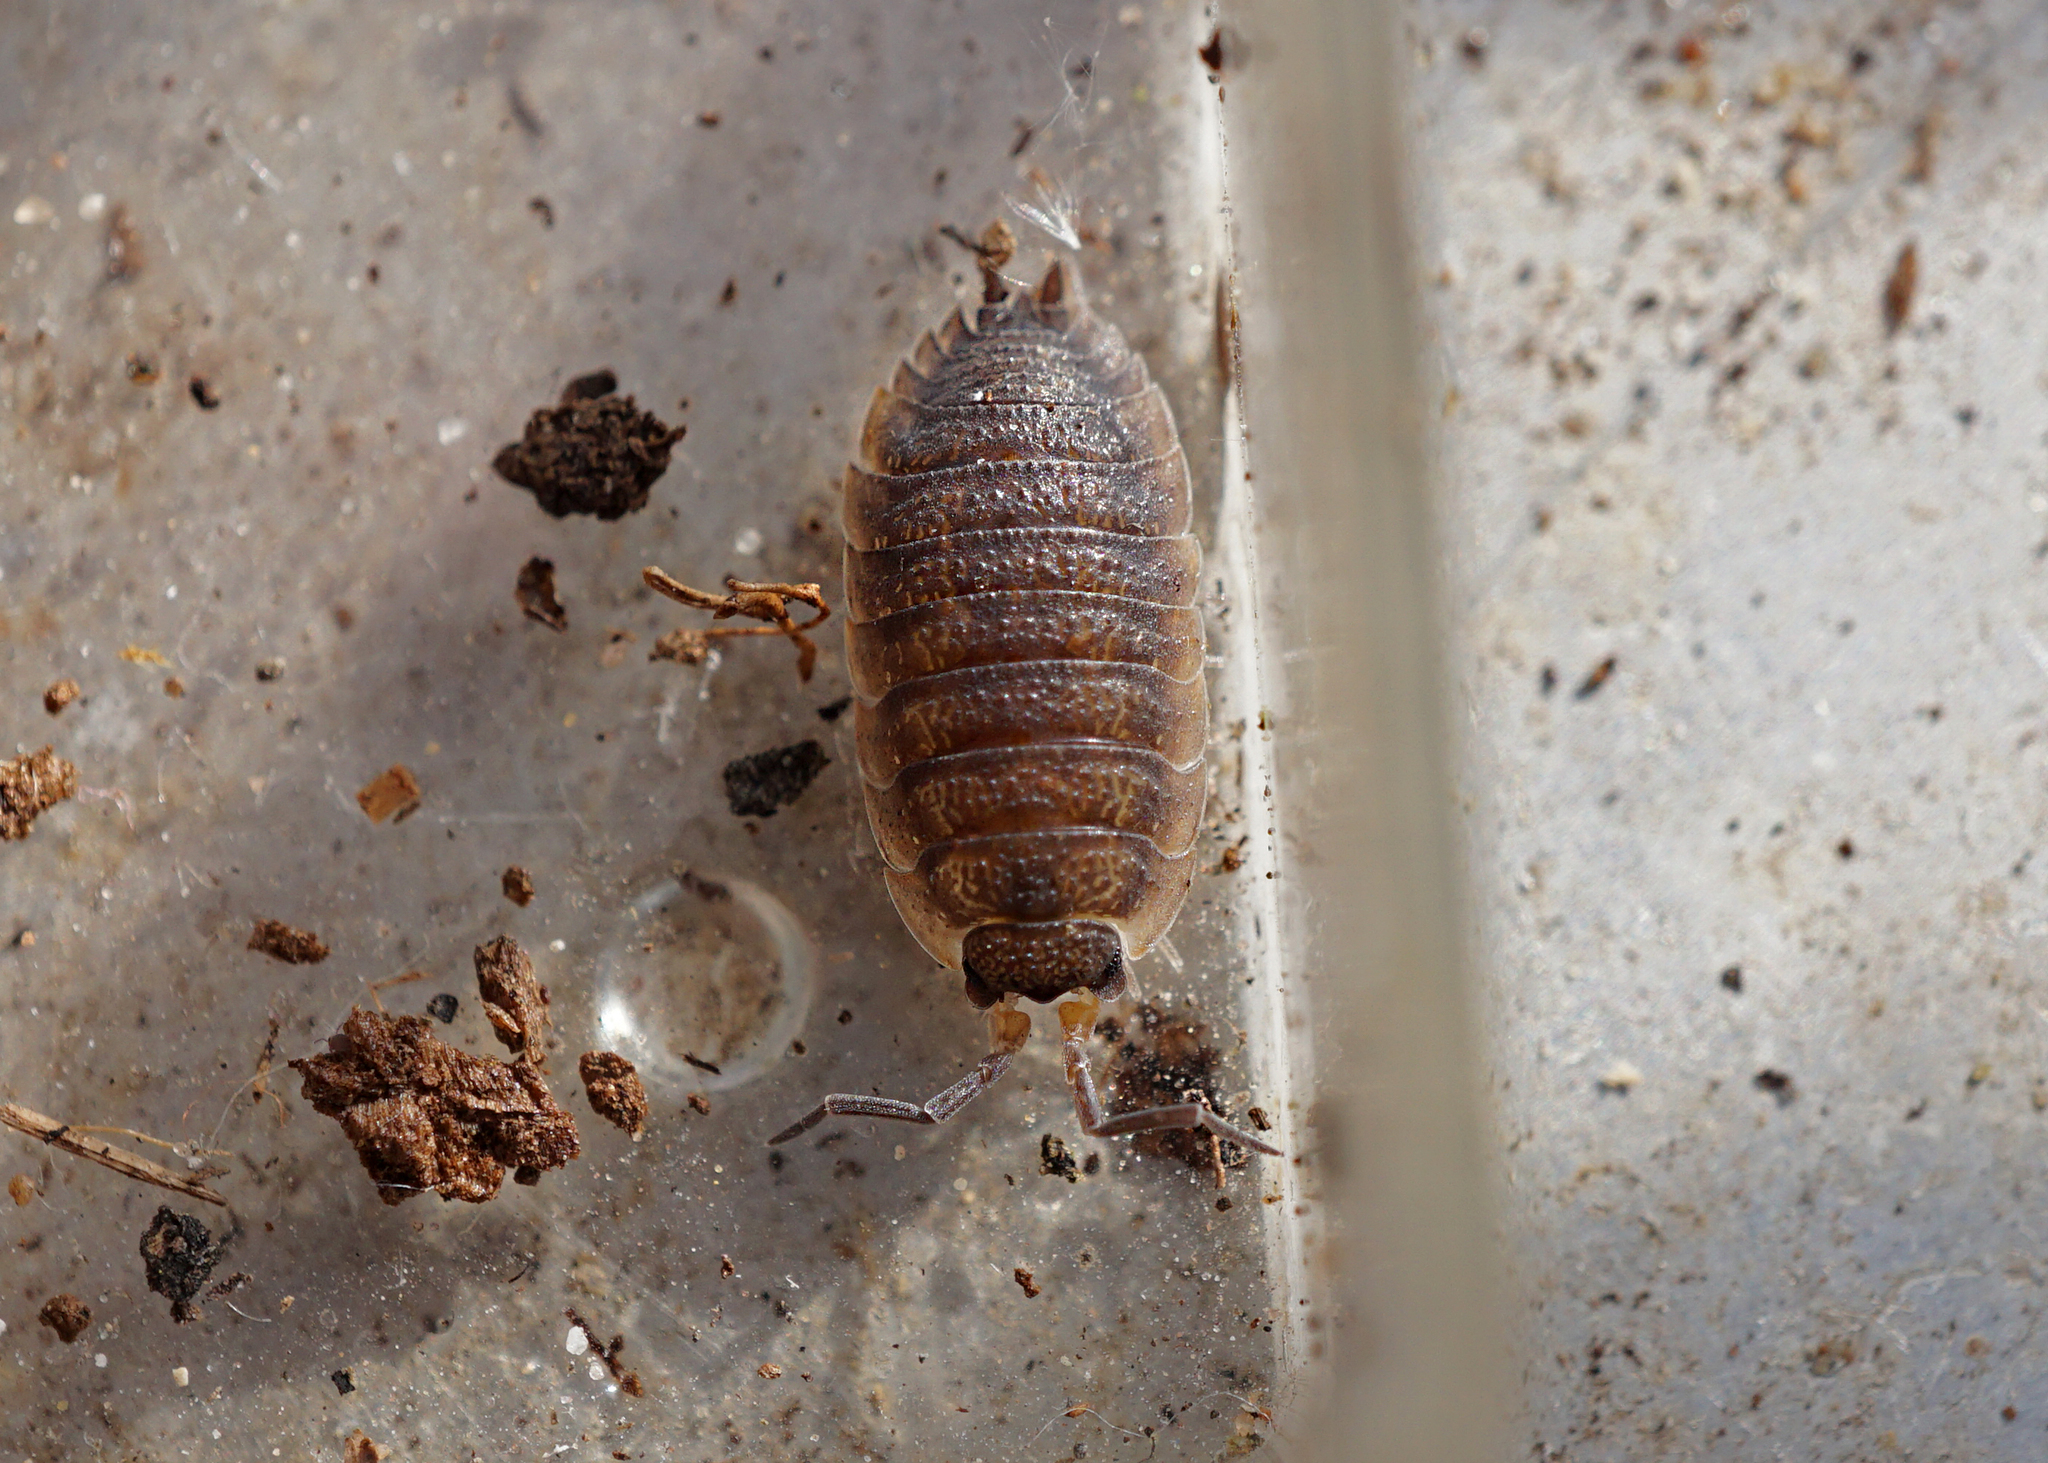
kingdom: Animalia
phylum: Arthropoda
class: Malacostraca
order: Isopoda
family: Porcellionidae
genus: Porcellio
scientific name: Porcellio scaber
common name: Common rough woodlouse
